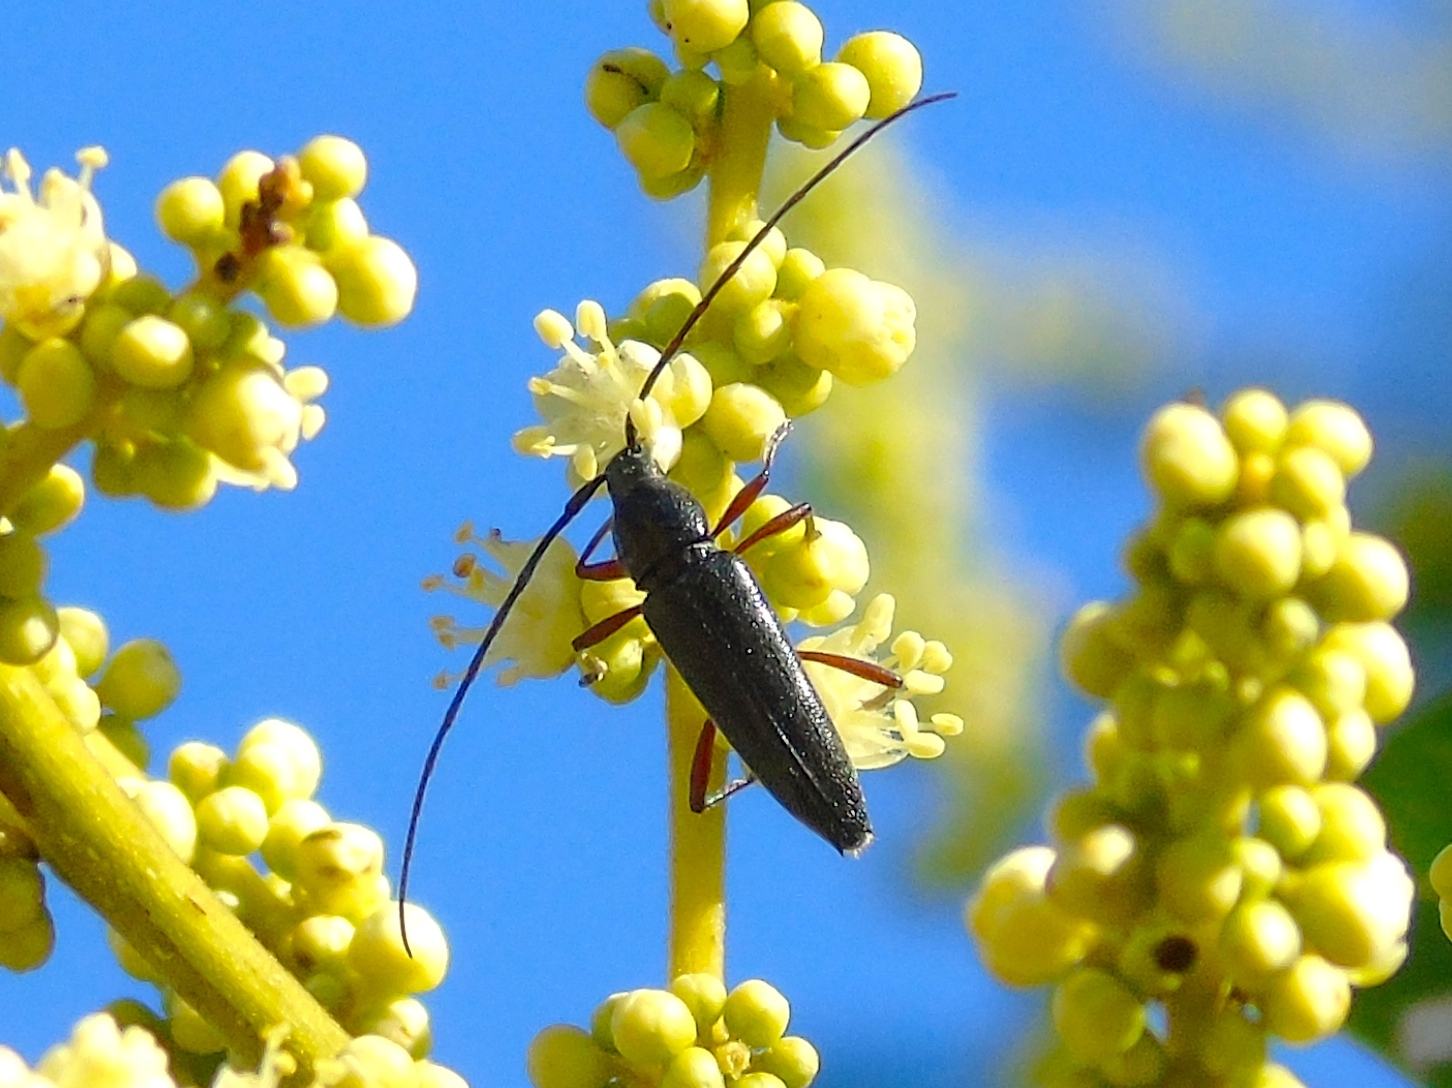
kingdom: Animalia
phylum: Arthropoda
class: Insecta
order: Coleoptera
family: Cerambycidae
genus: Stenosphenus
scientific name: Stenosphenus
